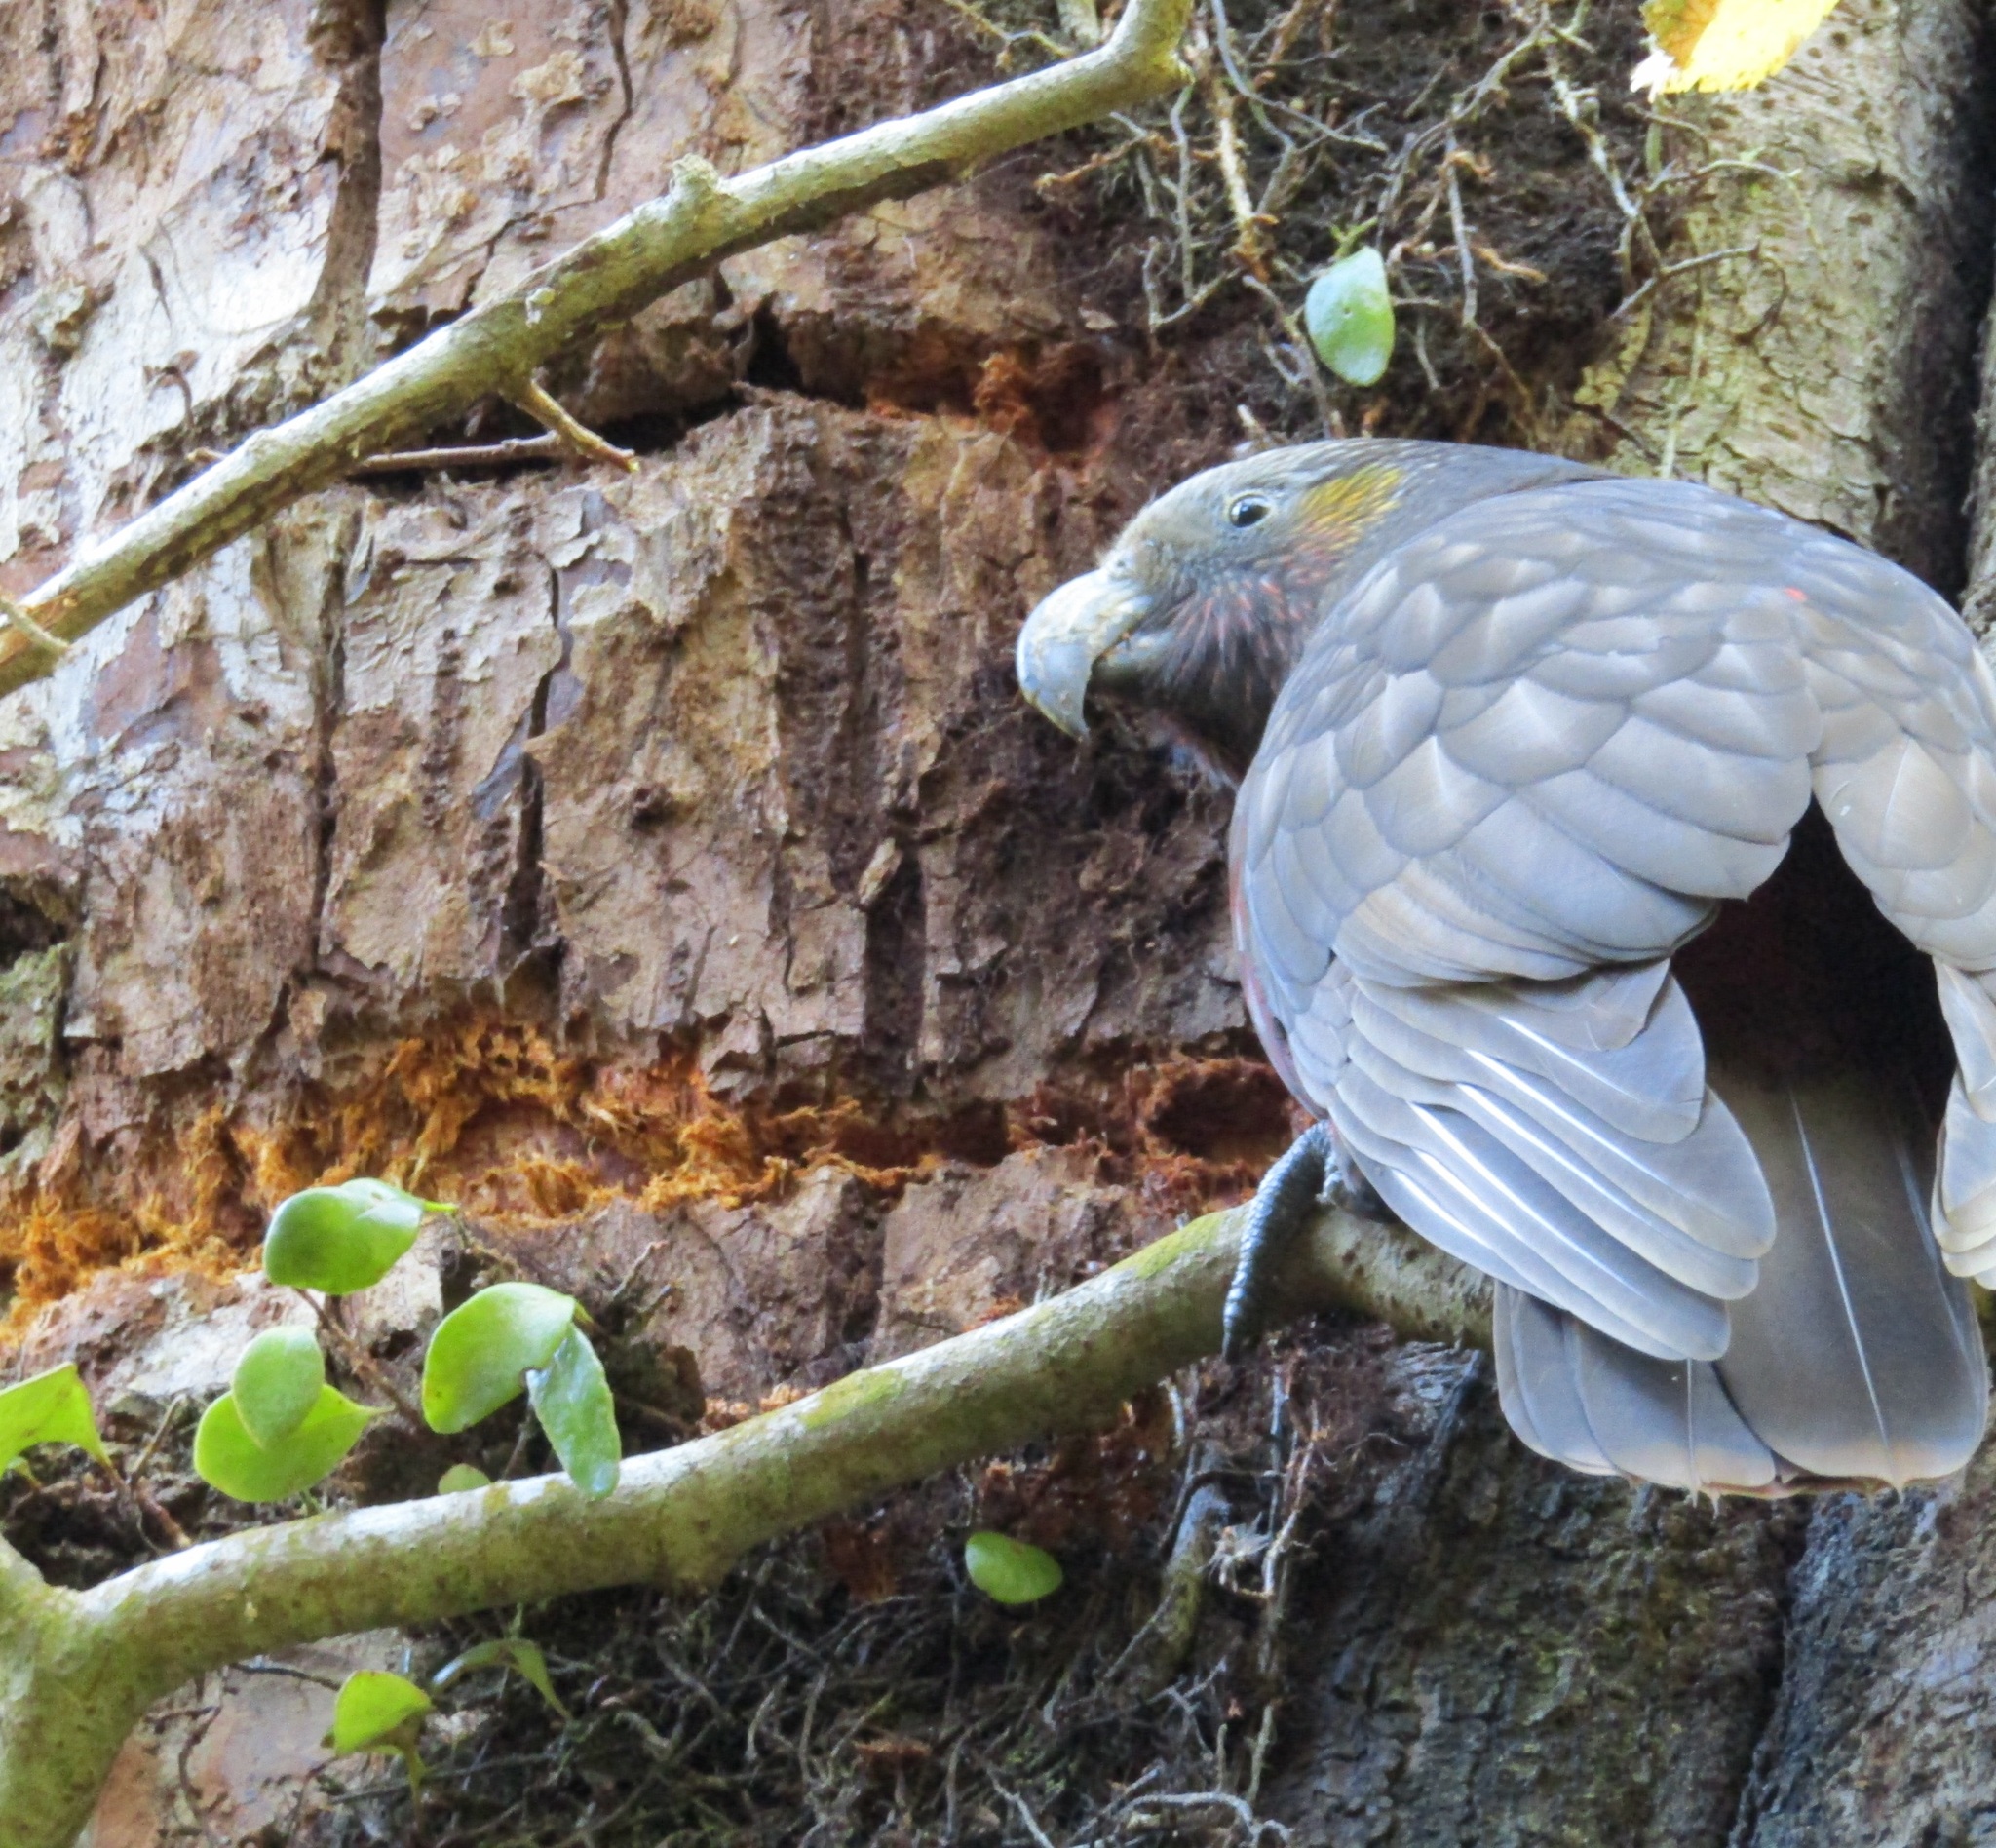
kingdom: Animalia
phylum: Chordata
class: Aves
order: Psittaciformes
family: Psittacidae
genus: Nestor
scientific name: Nestor meridionalis
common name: New zealand kaka
